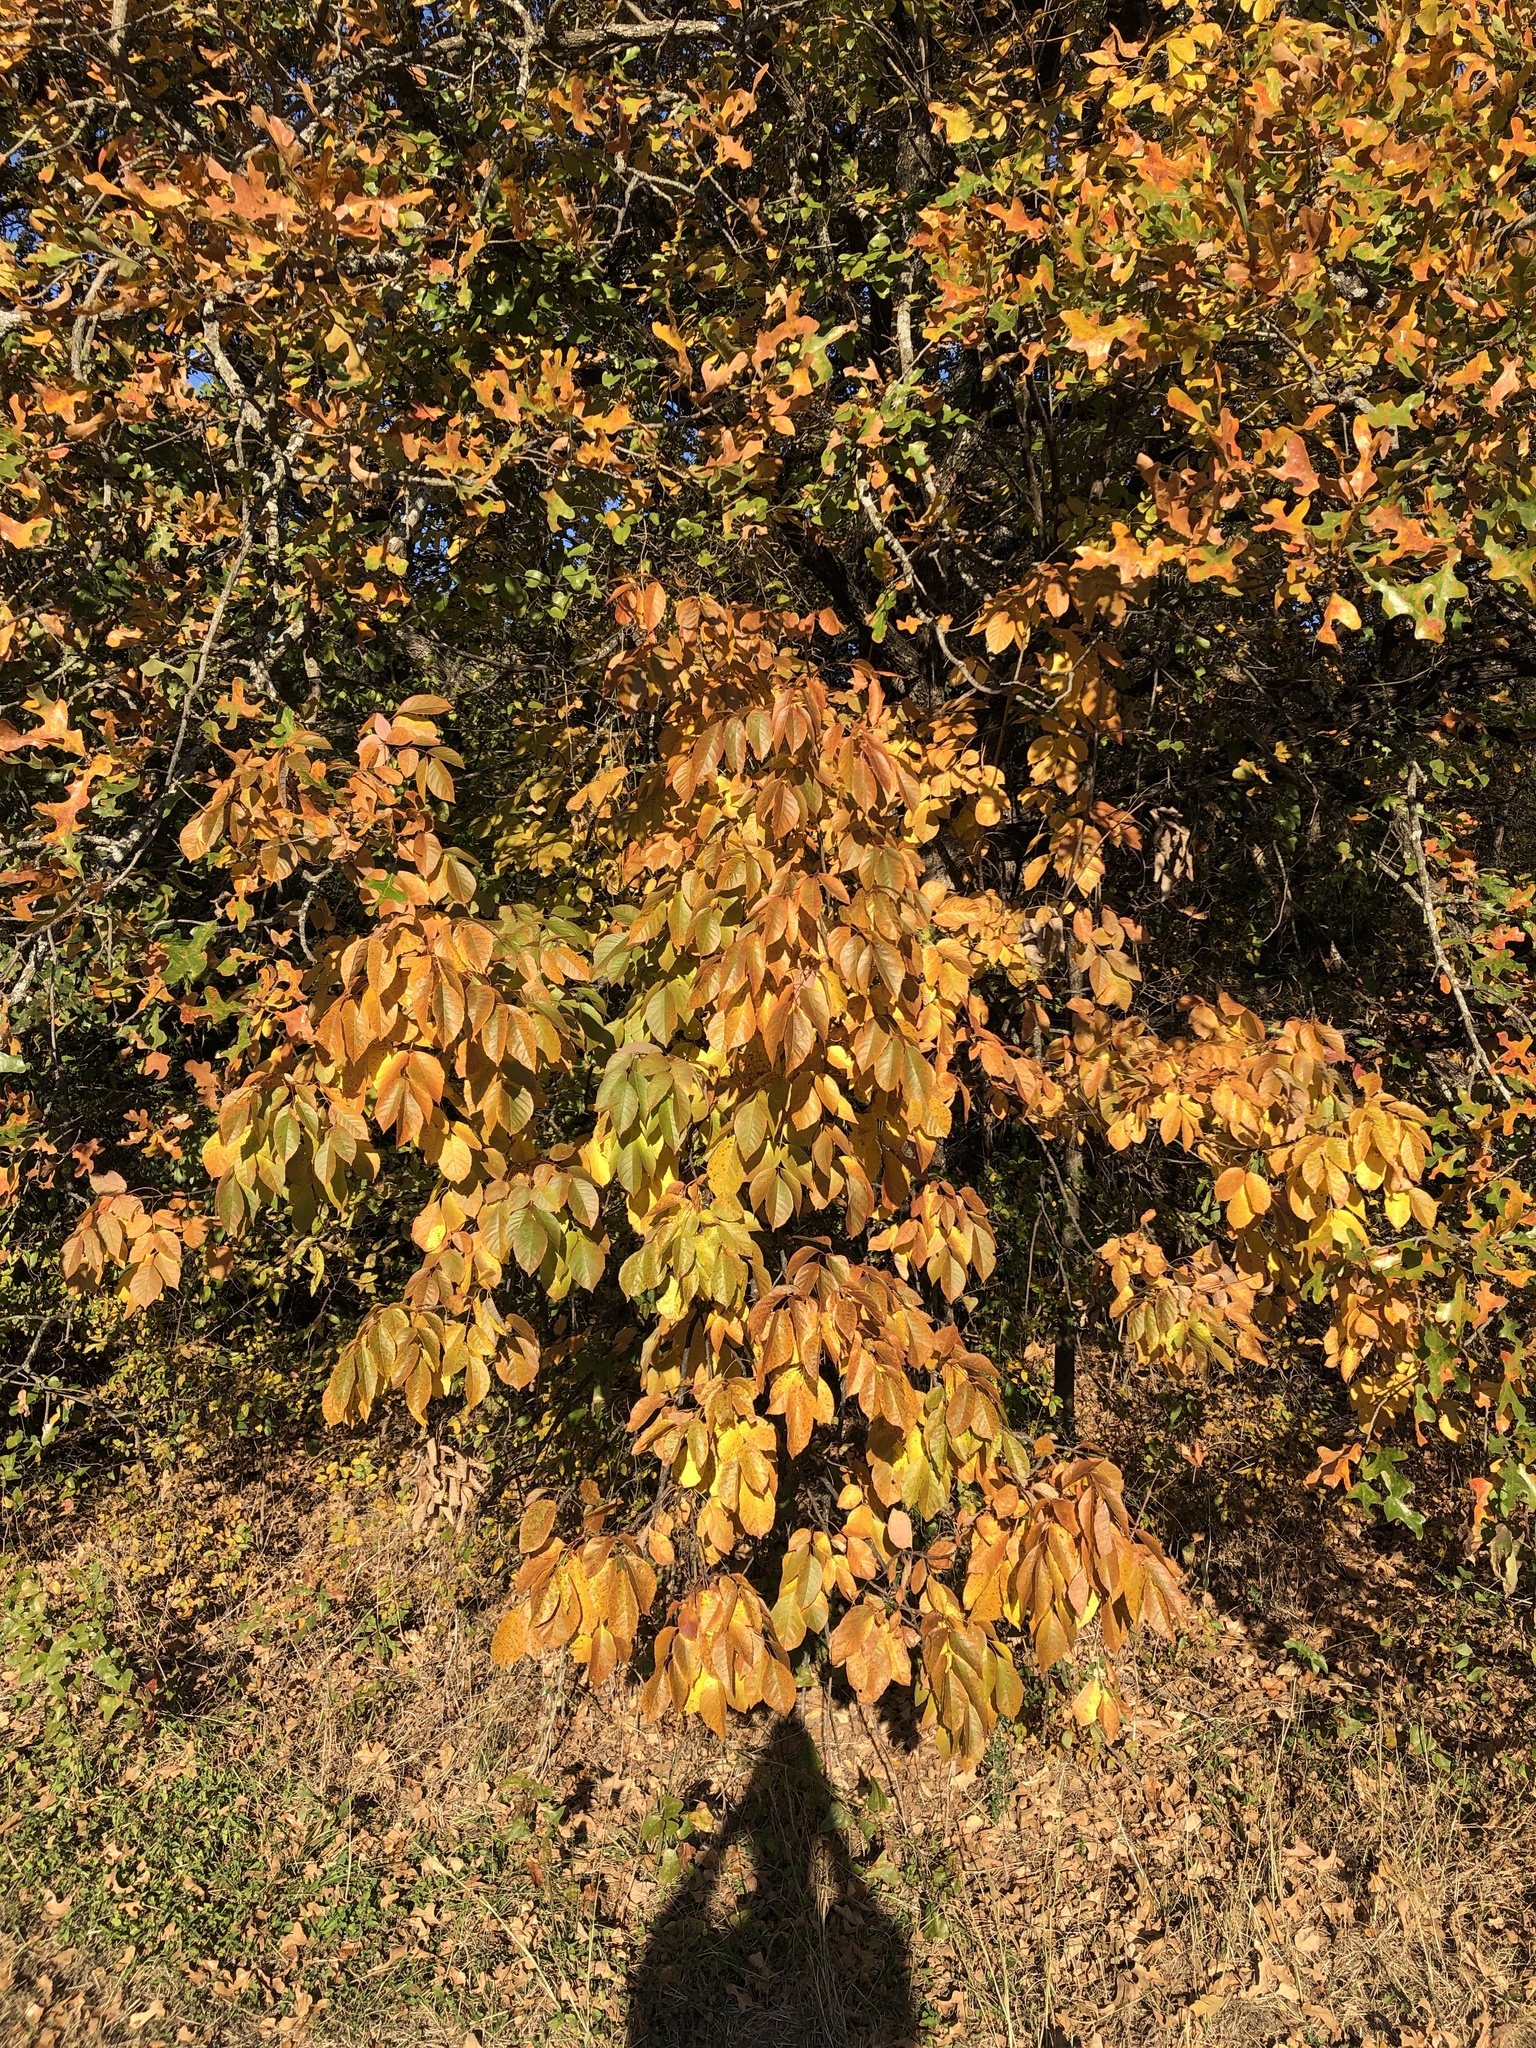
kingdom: Plantae
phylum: Tracheophyta
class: Magnoliopsida
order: Lamiales
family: Oleaceae
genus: Fraxinus
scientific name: Fraxinus pennsylvanica
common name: Green ash
